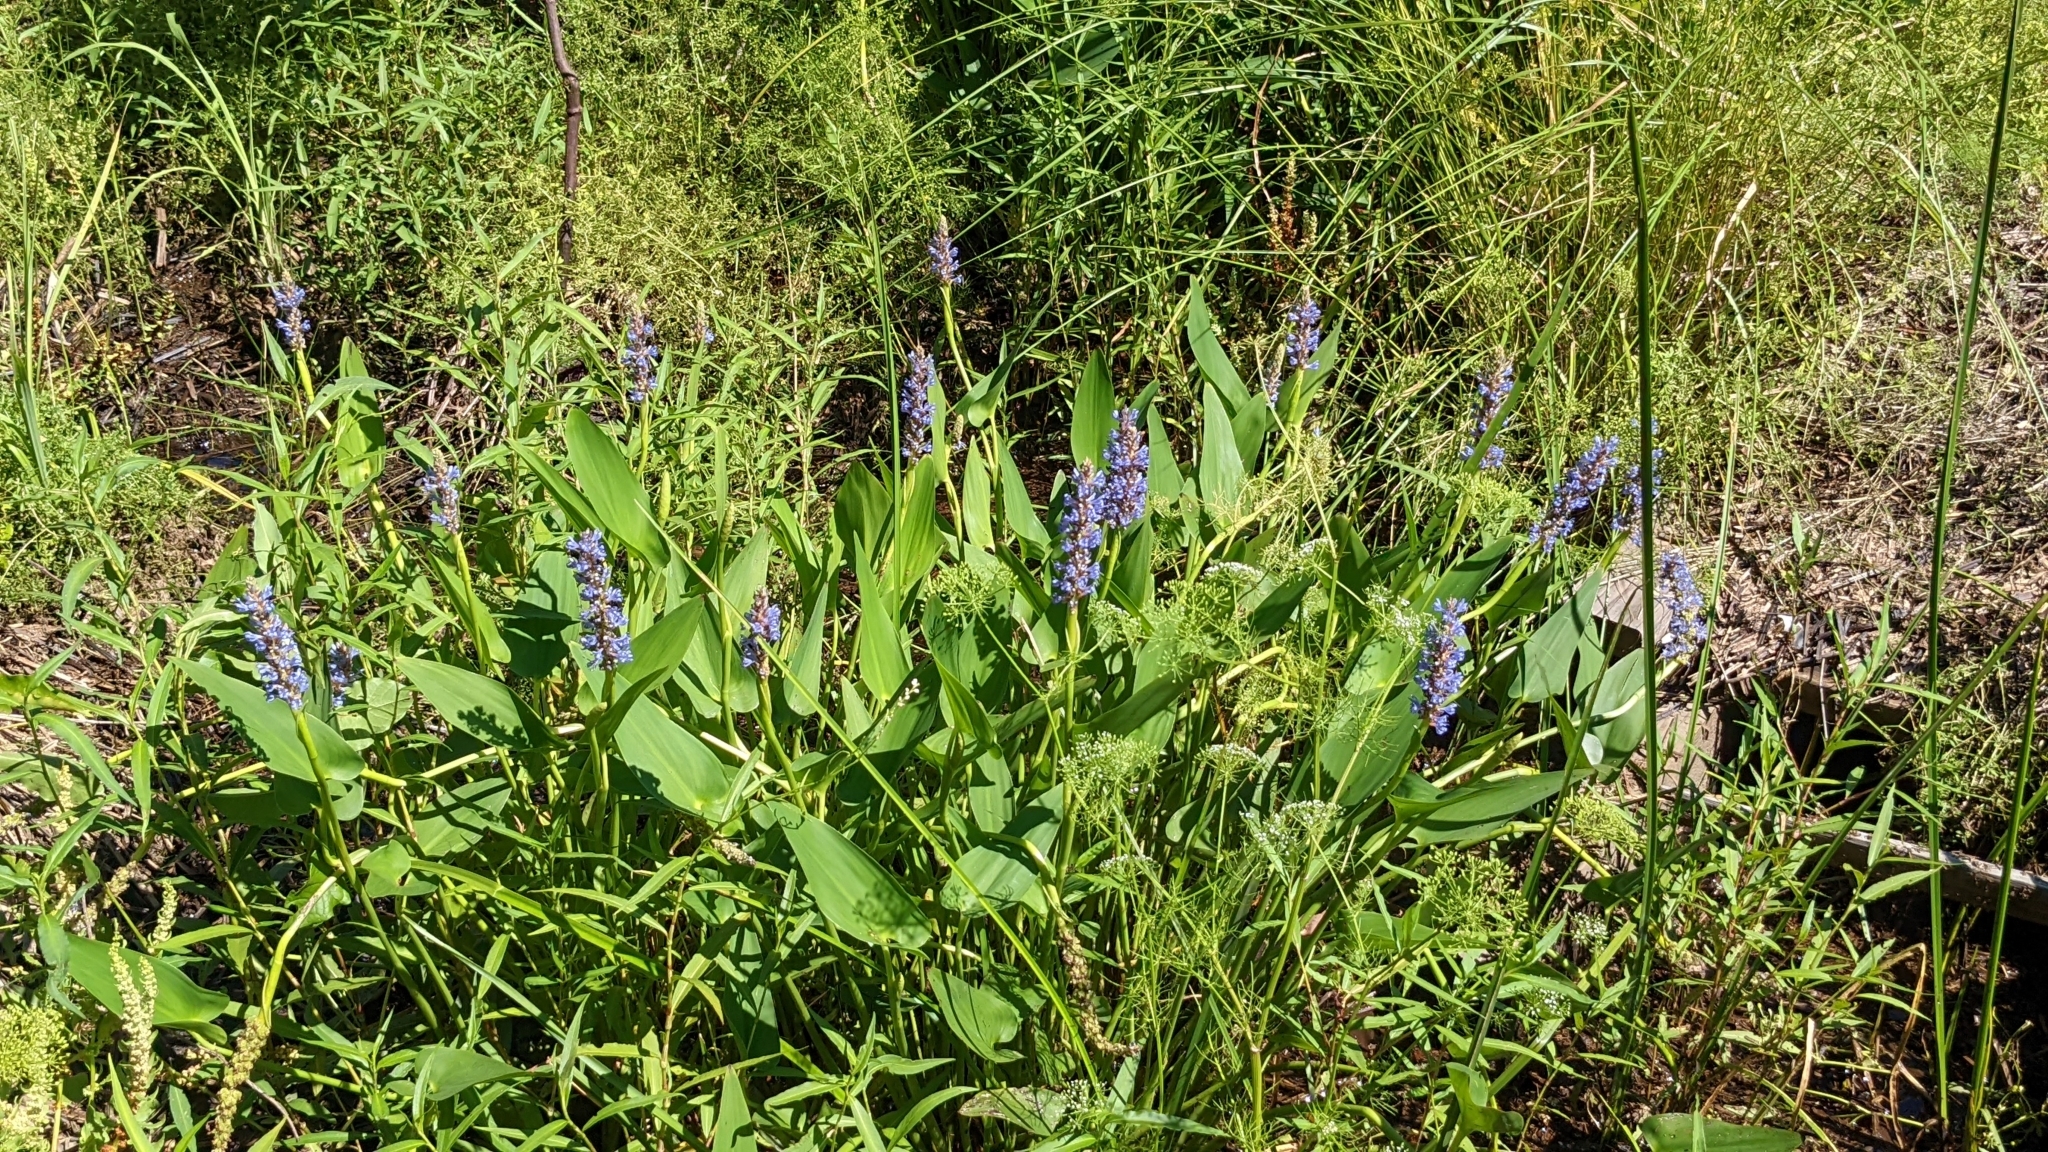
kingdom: Plantae
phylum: Tracheophyta
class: Liliopsida
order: Commelinales
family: Pontederiaceae
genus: Pontederia
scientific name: Pontederia cordata
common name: Pickerelweed
